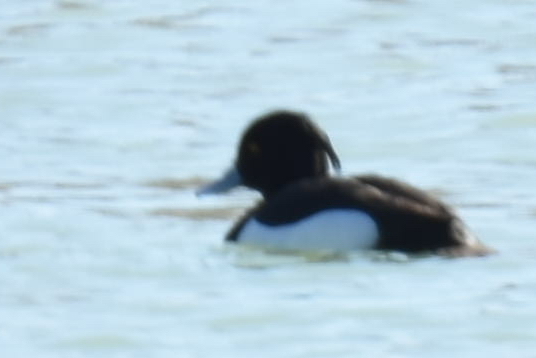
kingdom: Animalia
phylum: Chordata
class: Aves
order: Anseriformes
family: Anatidae
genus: Aythya
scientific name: Aythya fuligula
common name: Tufted duck
